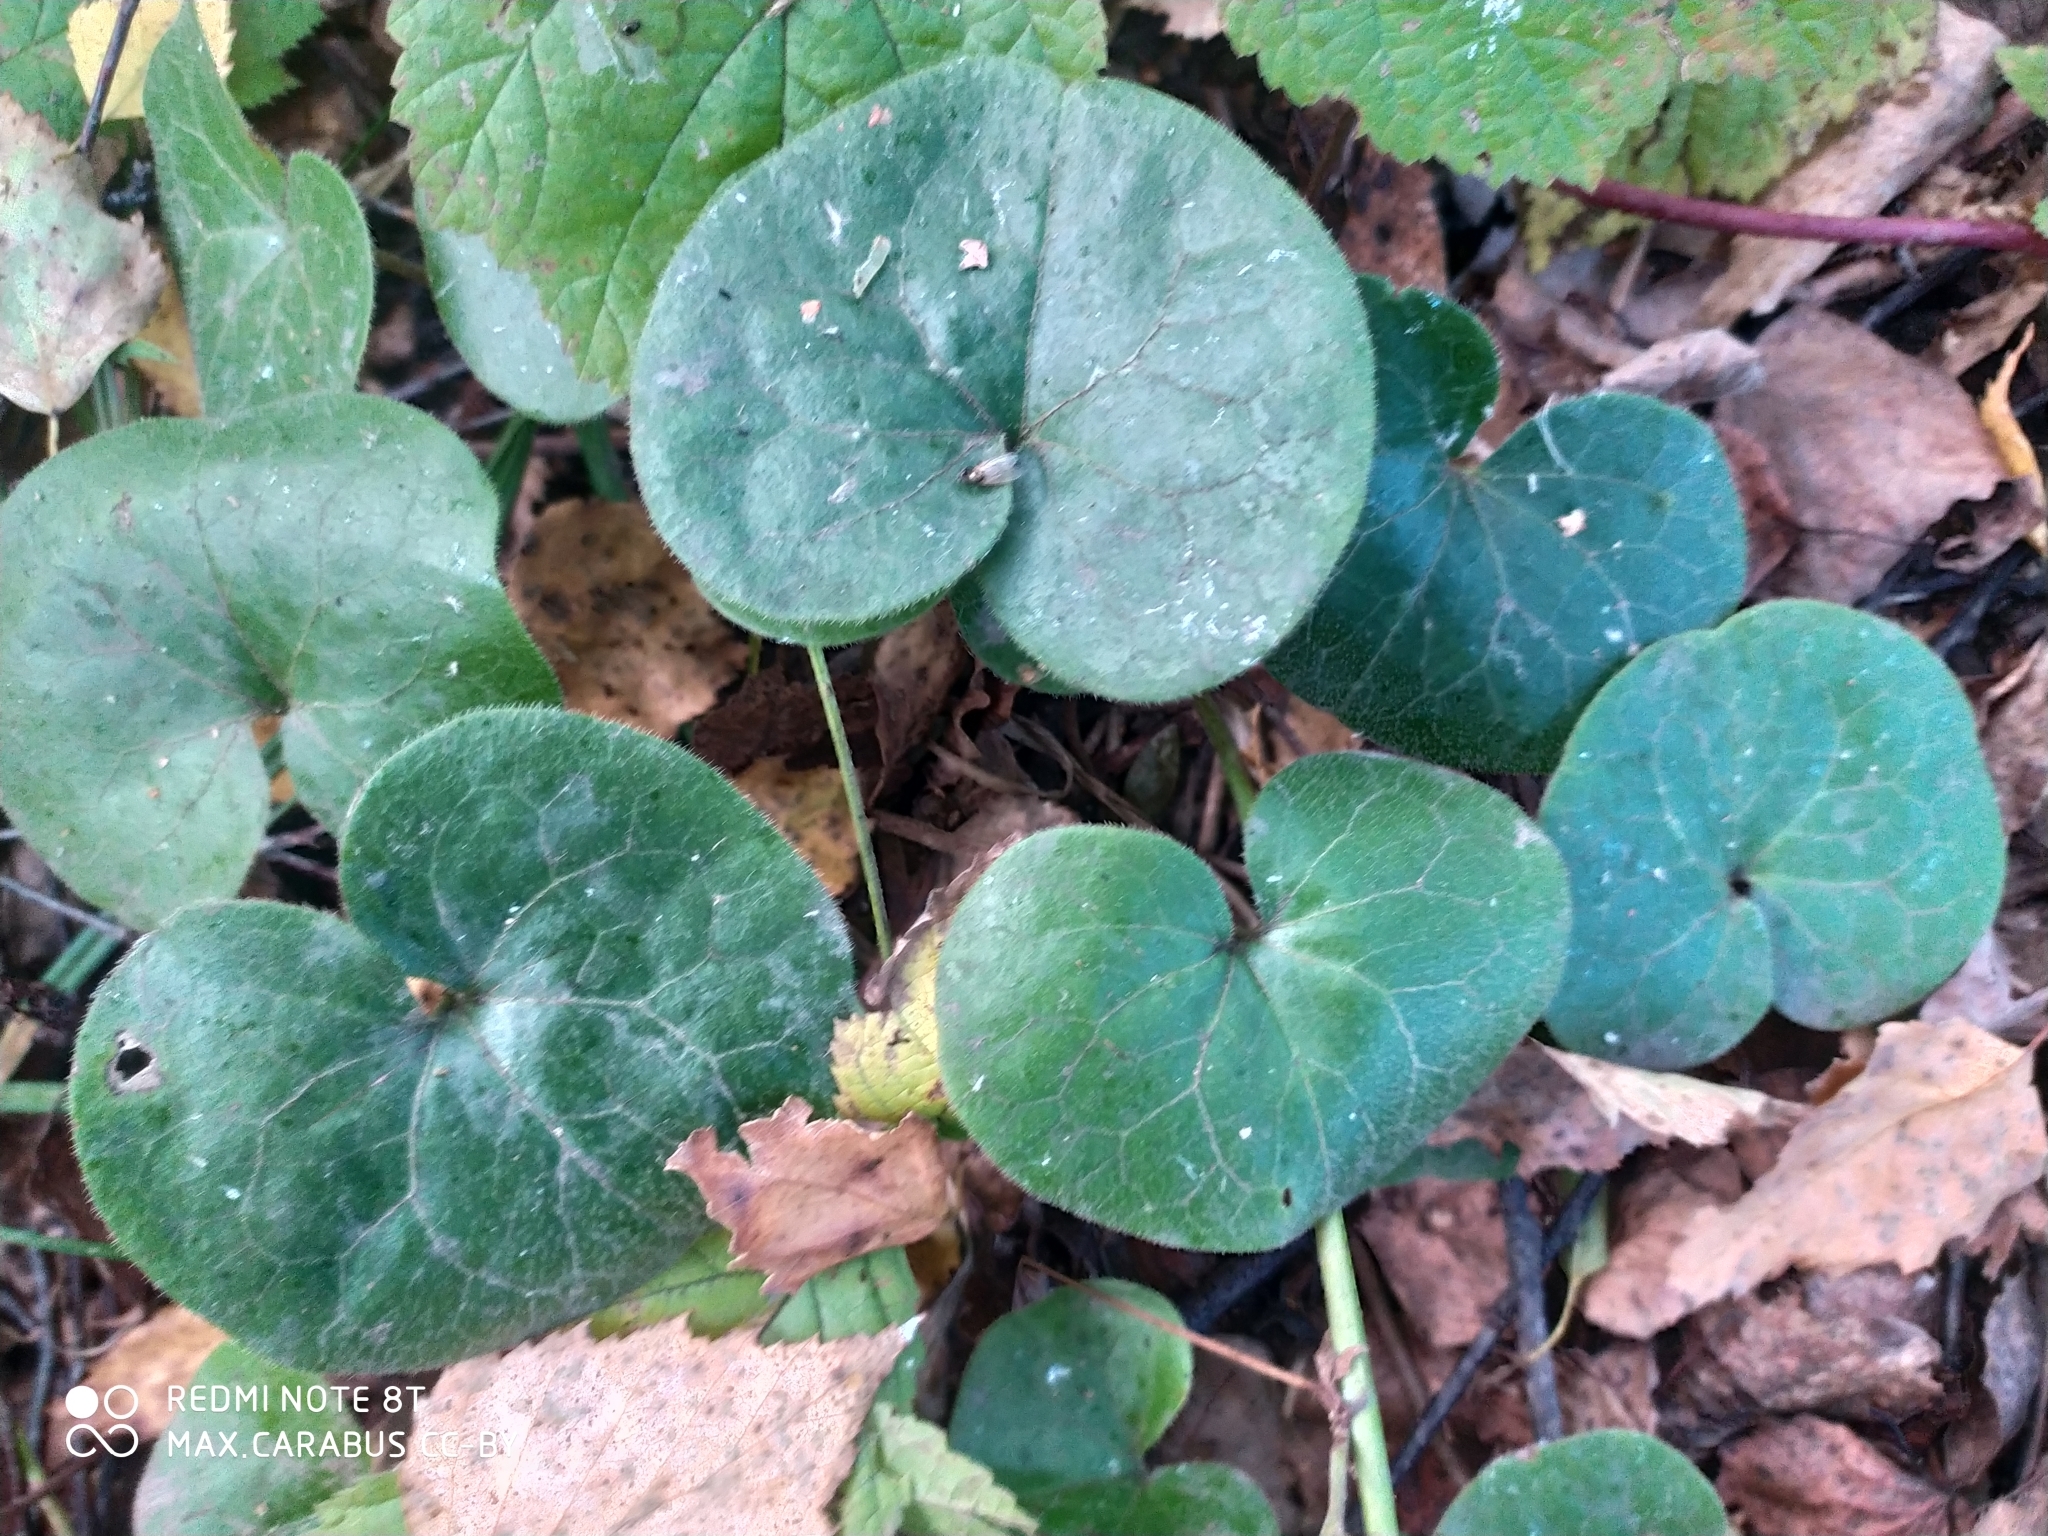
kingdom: Plantae
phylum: Tracheophyta
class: Magnoliopsida
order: Piperales
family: Aristolochiaceae
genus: Asarum
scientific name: Asarum europaeum
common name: Asarabacca
